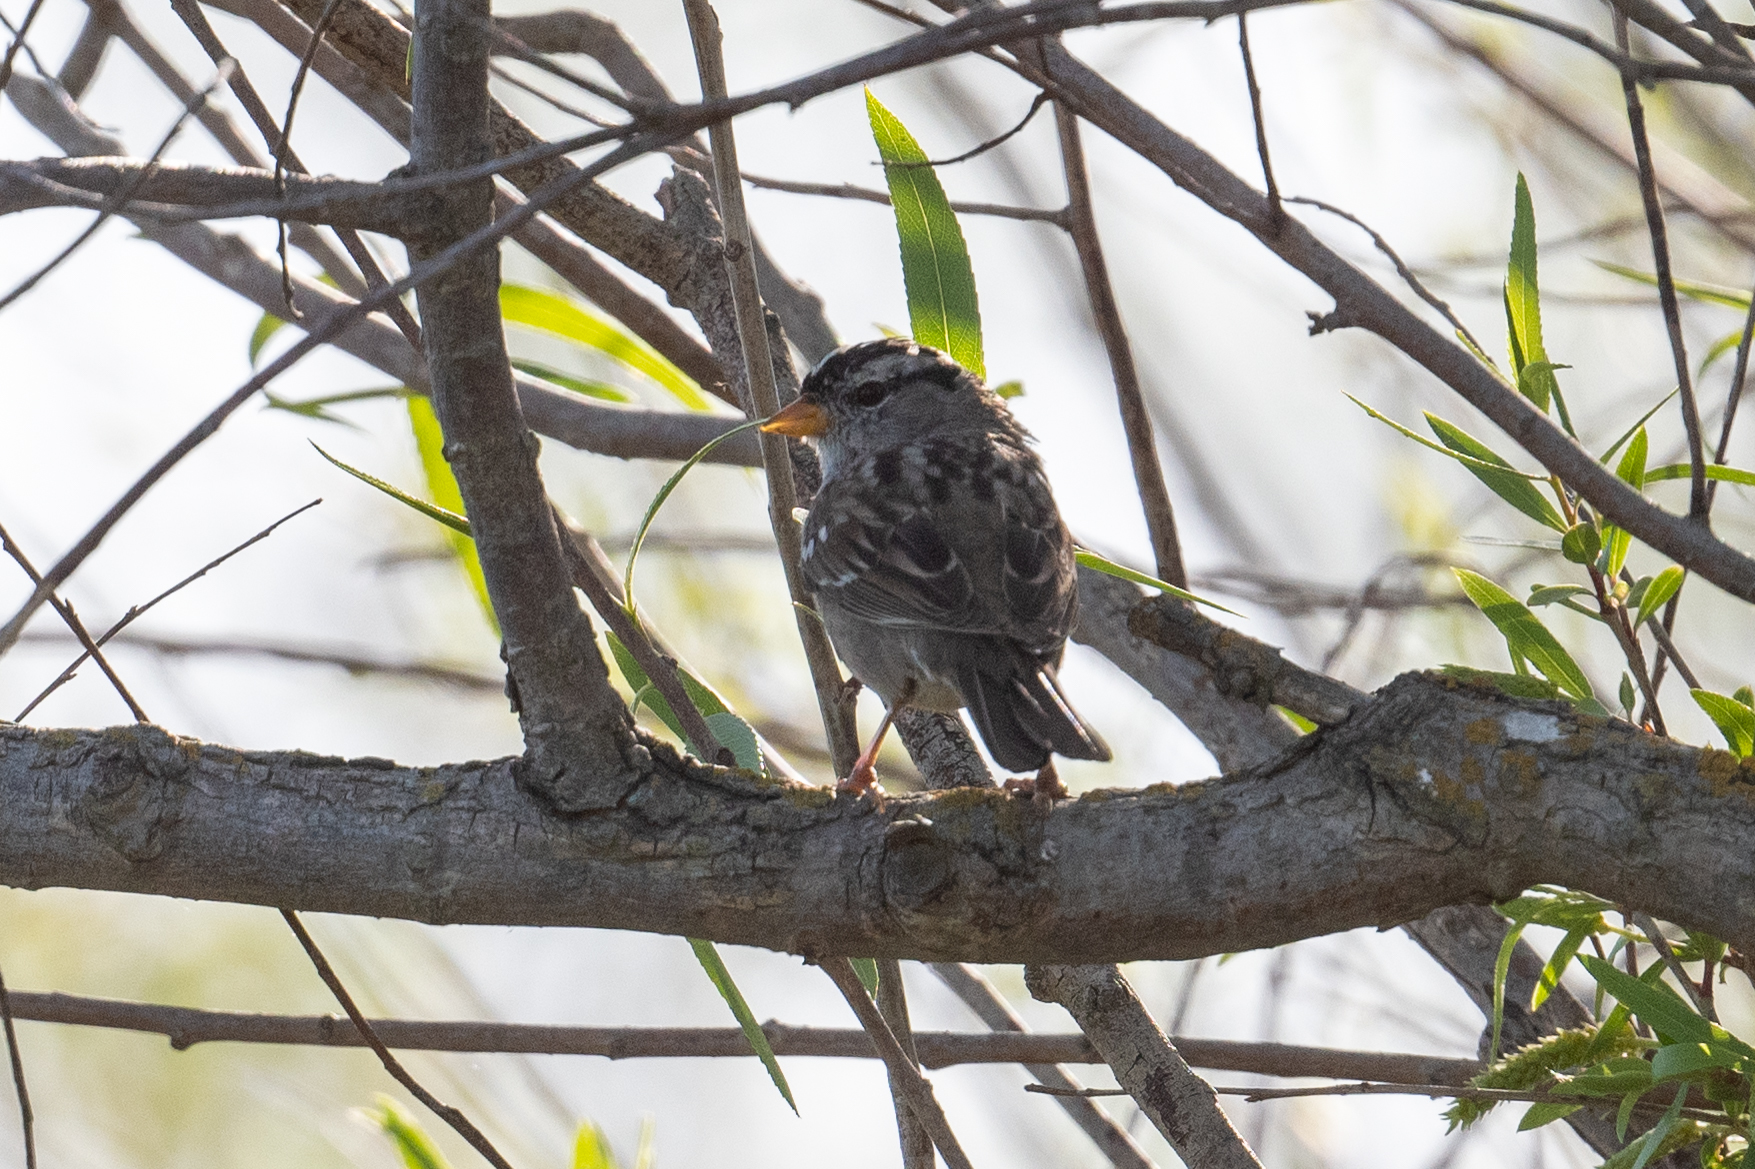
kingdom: Animalia
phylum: Chordata
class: Aves
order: Passeriformes
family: Passerellidae
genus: Zonotrichia
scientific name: Zonotrichia leucophrys
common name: White-crowned sparrow
